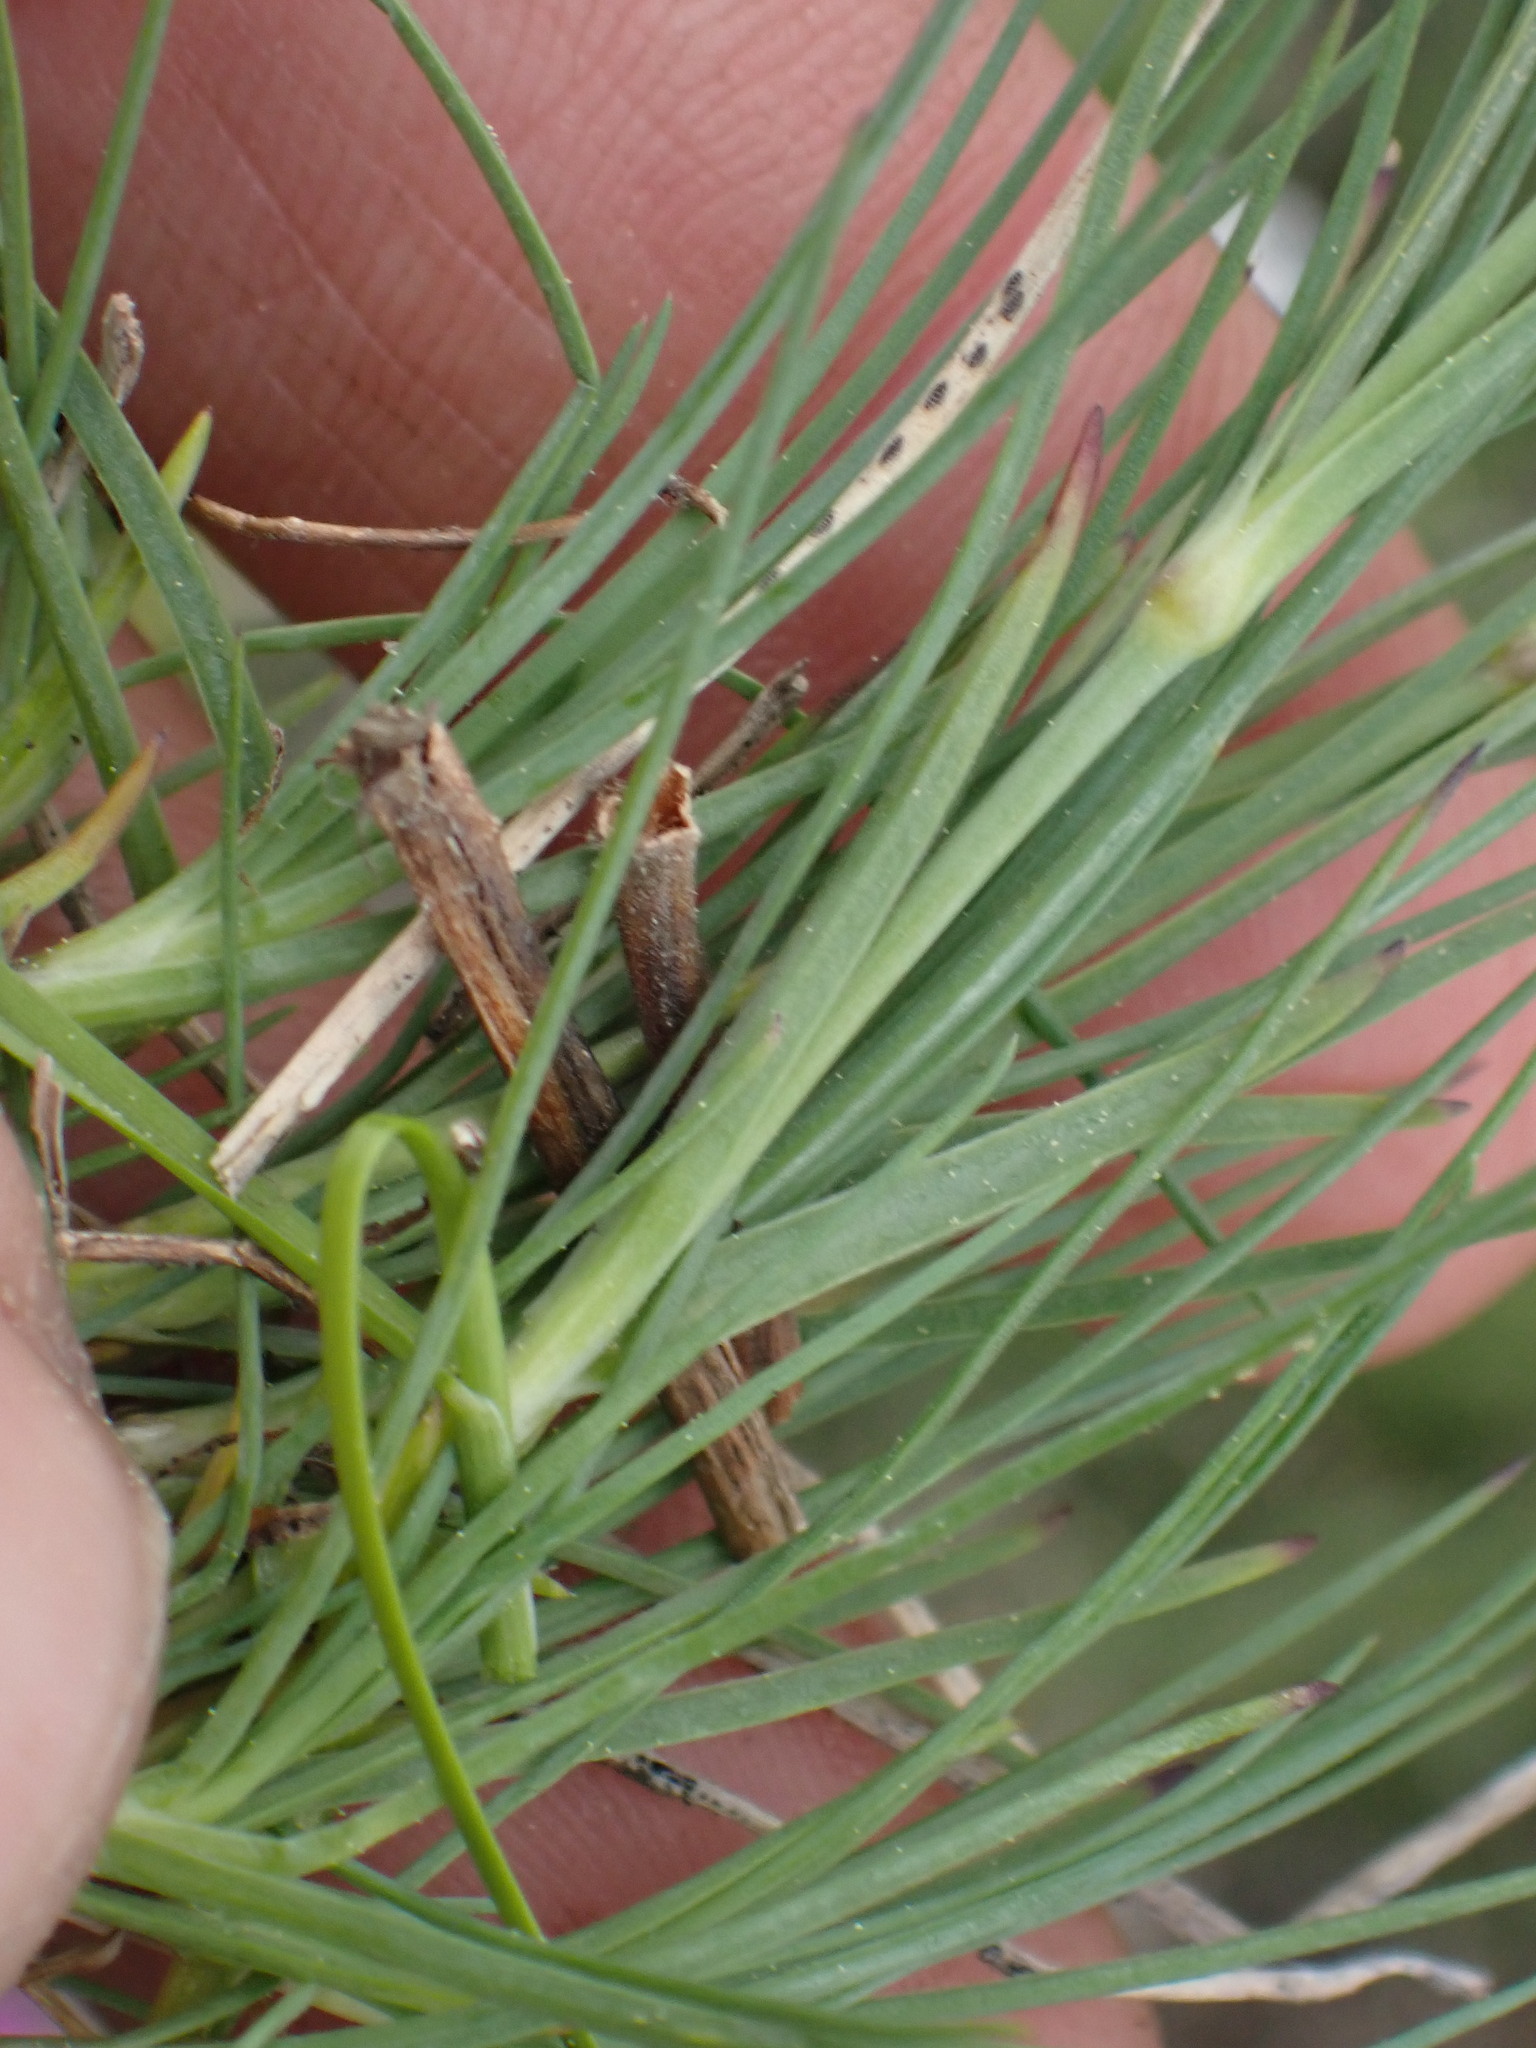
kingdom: Plantae
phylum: Tracheophyta
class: Magnoliopsida
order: Caryophyllales
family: Caryophyllaceae
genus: Eremogone
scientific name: Eremogone capillaris
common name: Slender mountain sandwort
